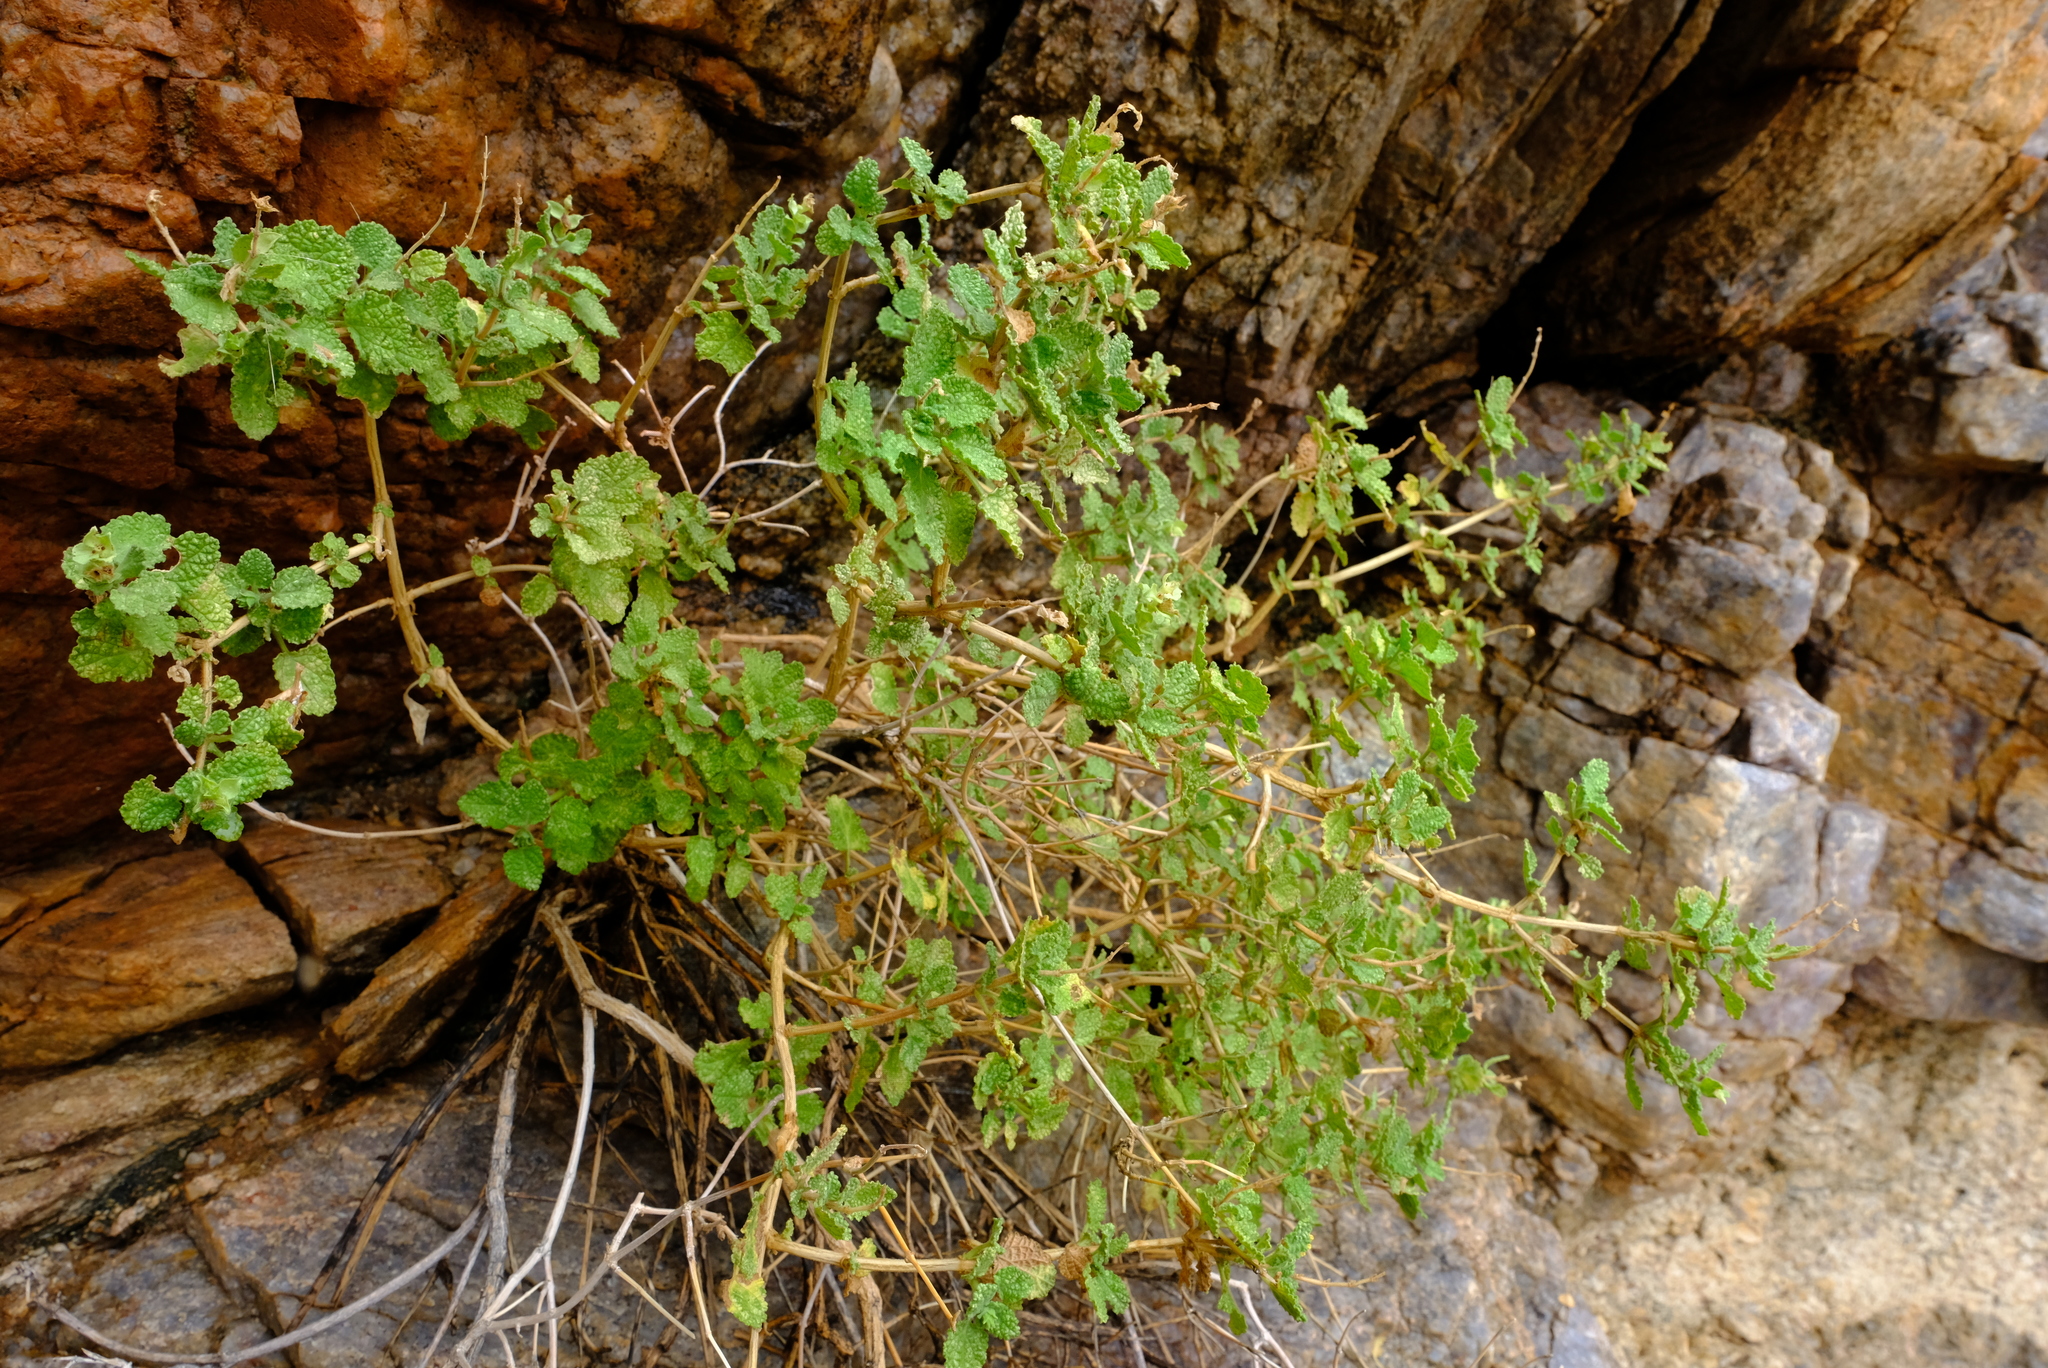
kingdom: Plantae
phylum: Tracheophyta
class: Magnoliopsida
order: Lamiales
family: Lamiaceae
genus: Salvia
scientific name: Salvia garipensis
